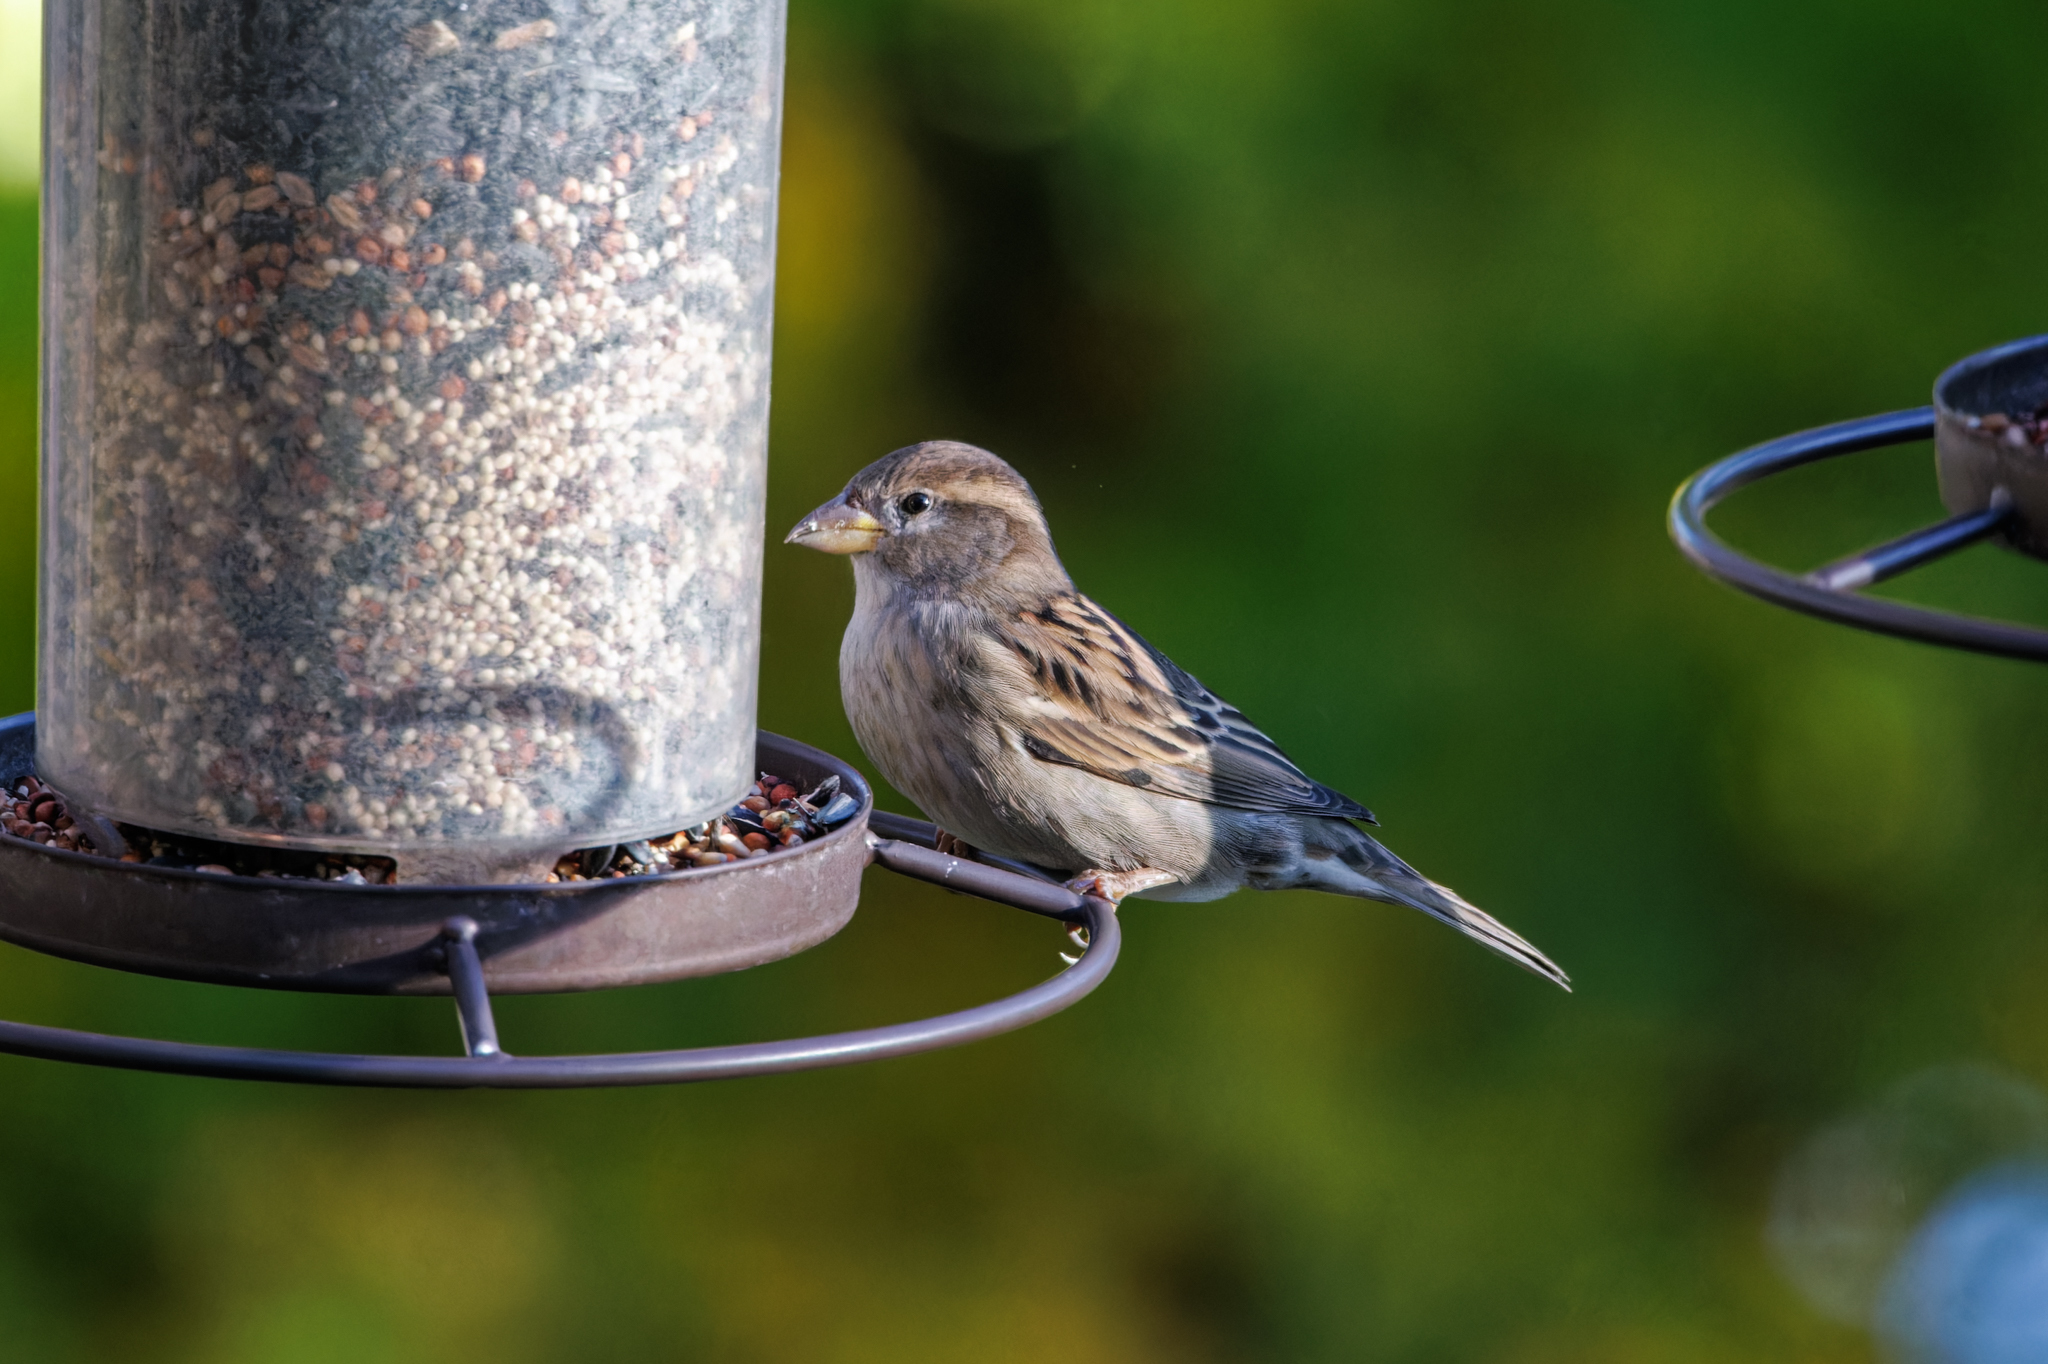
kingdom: Animalia
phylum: Chordata
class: Aves
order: Passeriformes
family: Passeridae
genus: Passer
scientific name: Passer domesticus
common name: House sparrow
